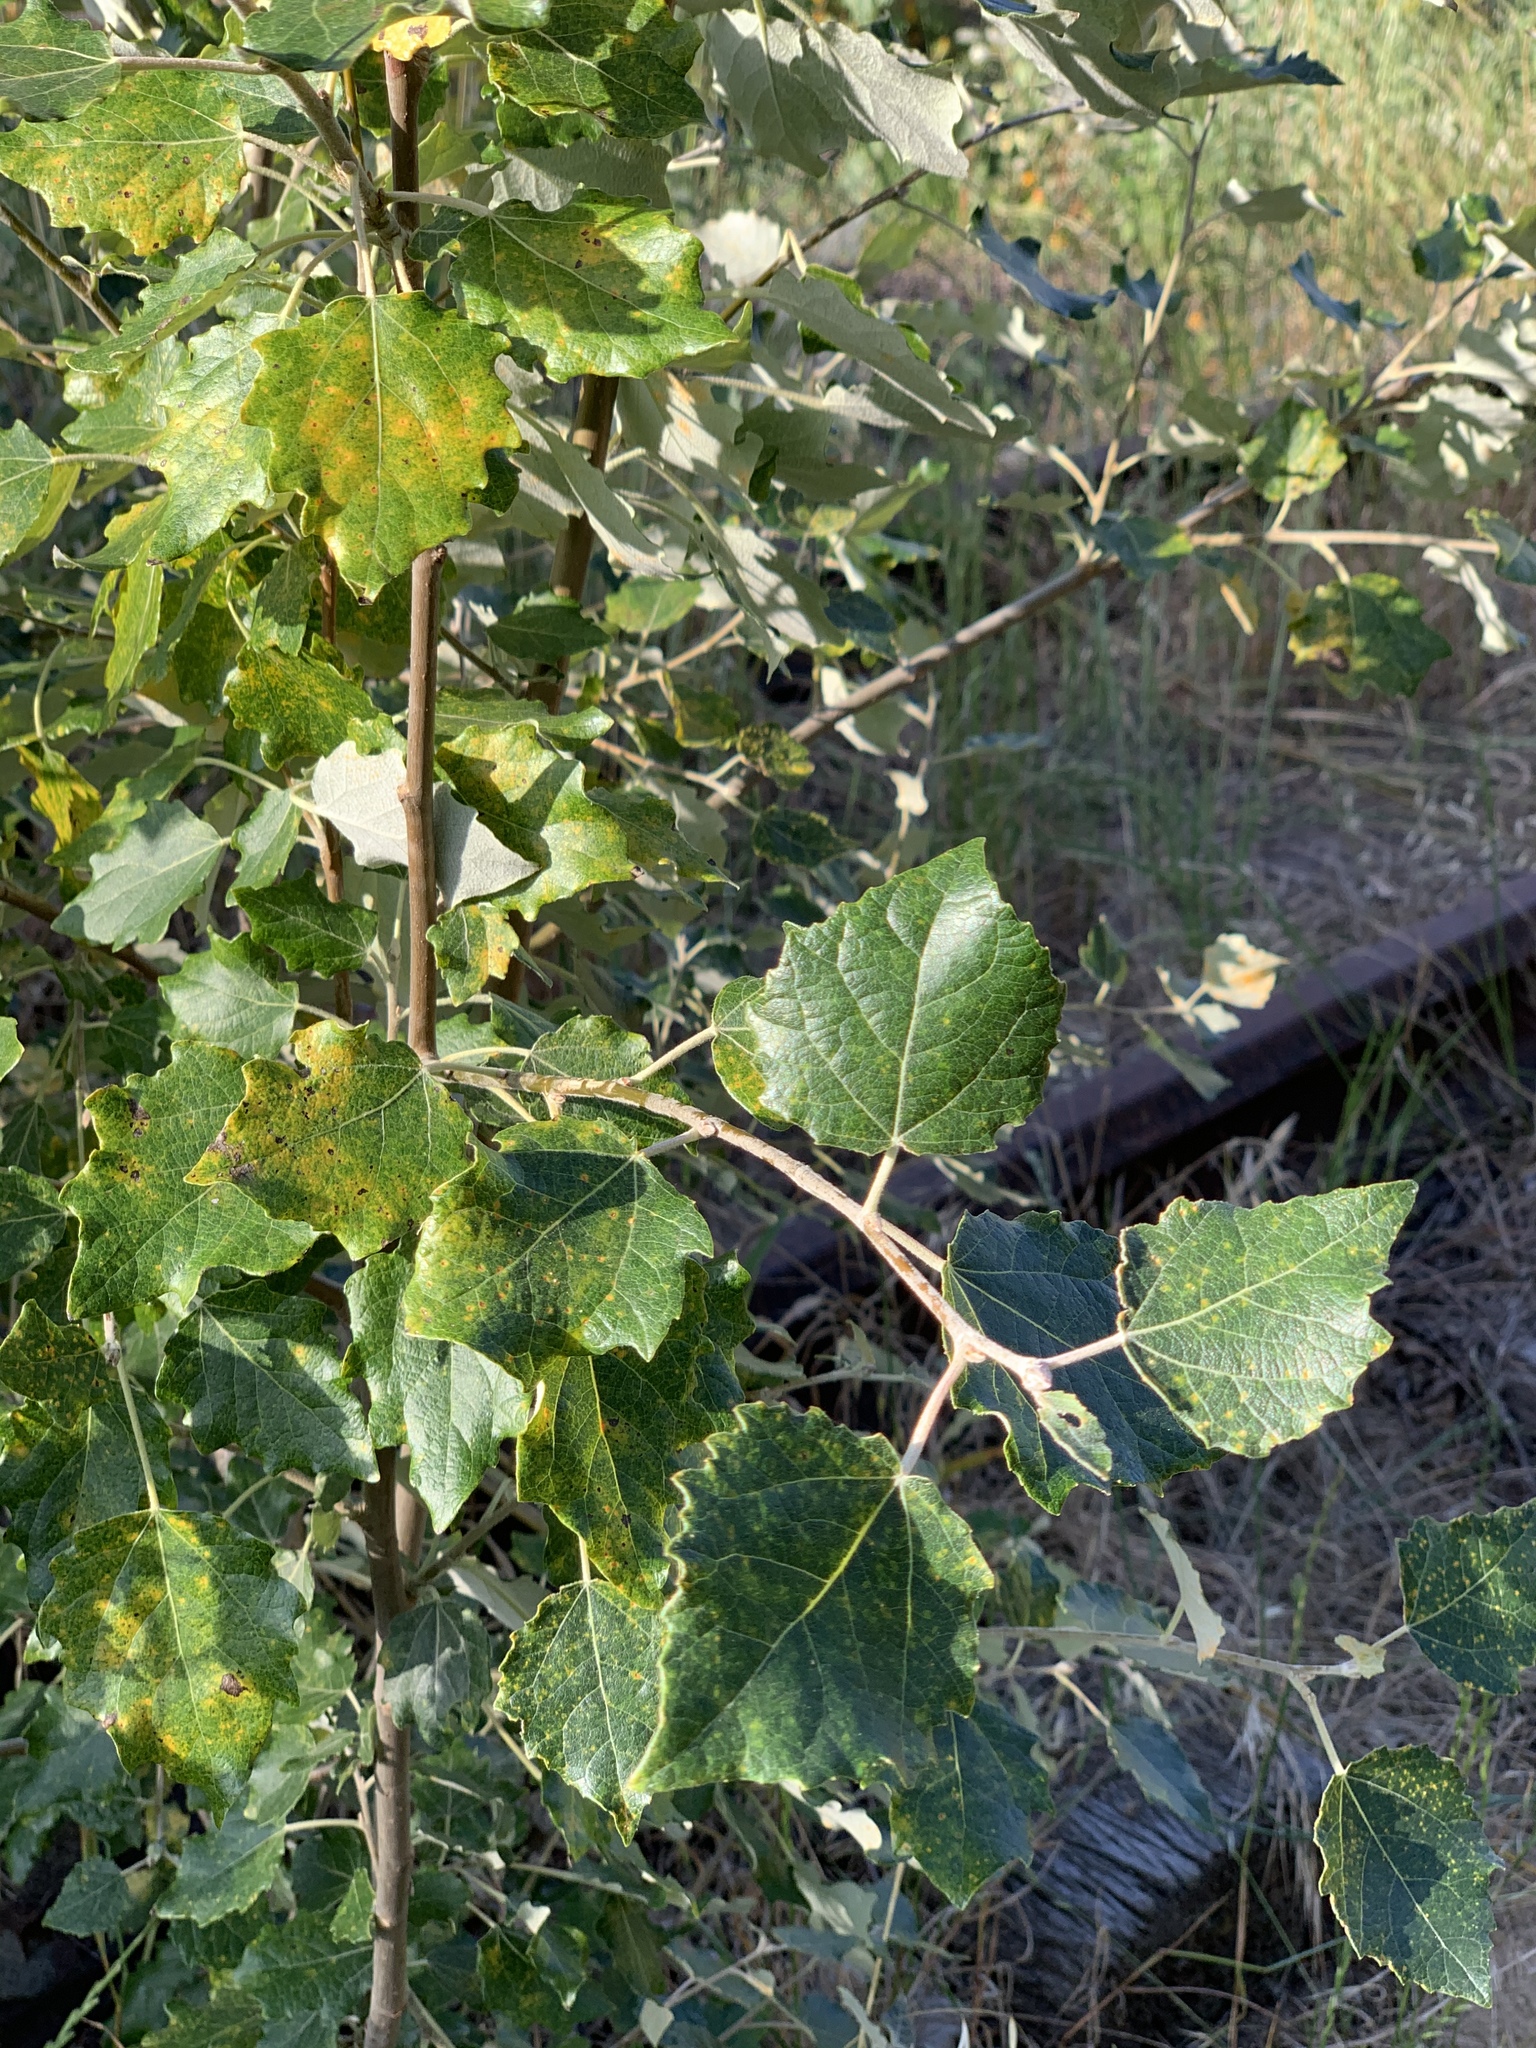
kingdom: Plantae
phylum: Tracheophyta
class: Magnoliopsida
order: Malpighiales
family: Salicaceae
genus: Populus
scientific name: Populus canescens
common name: Gray poplar
